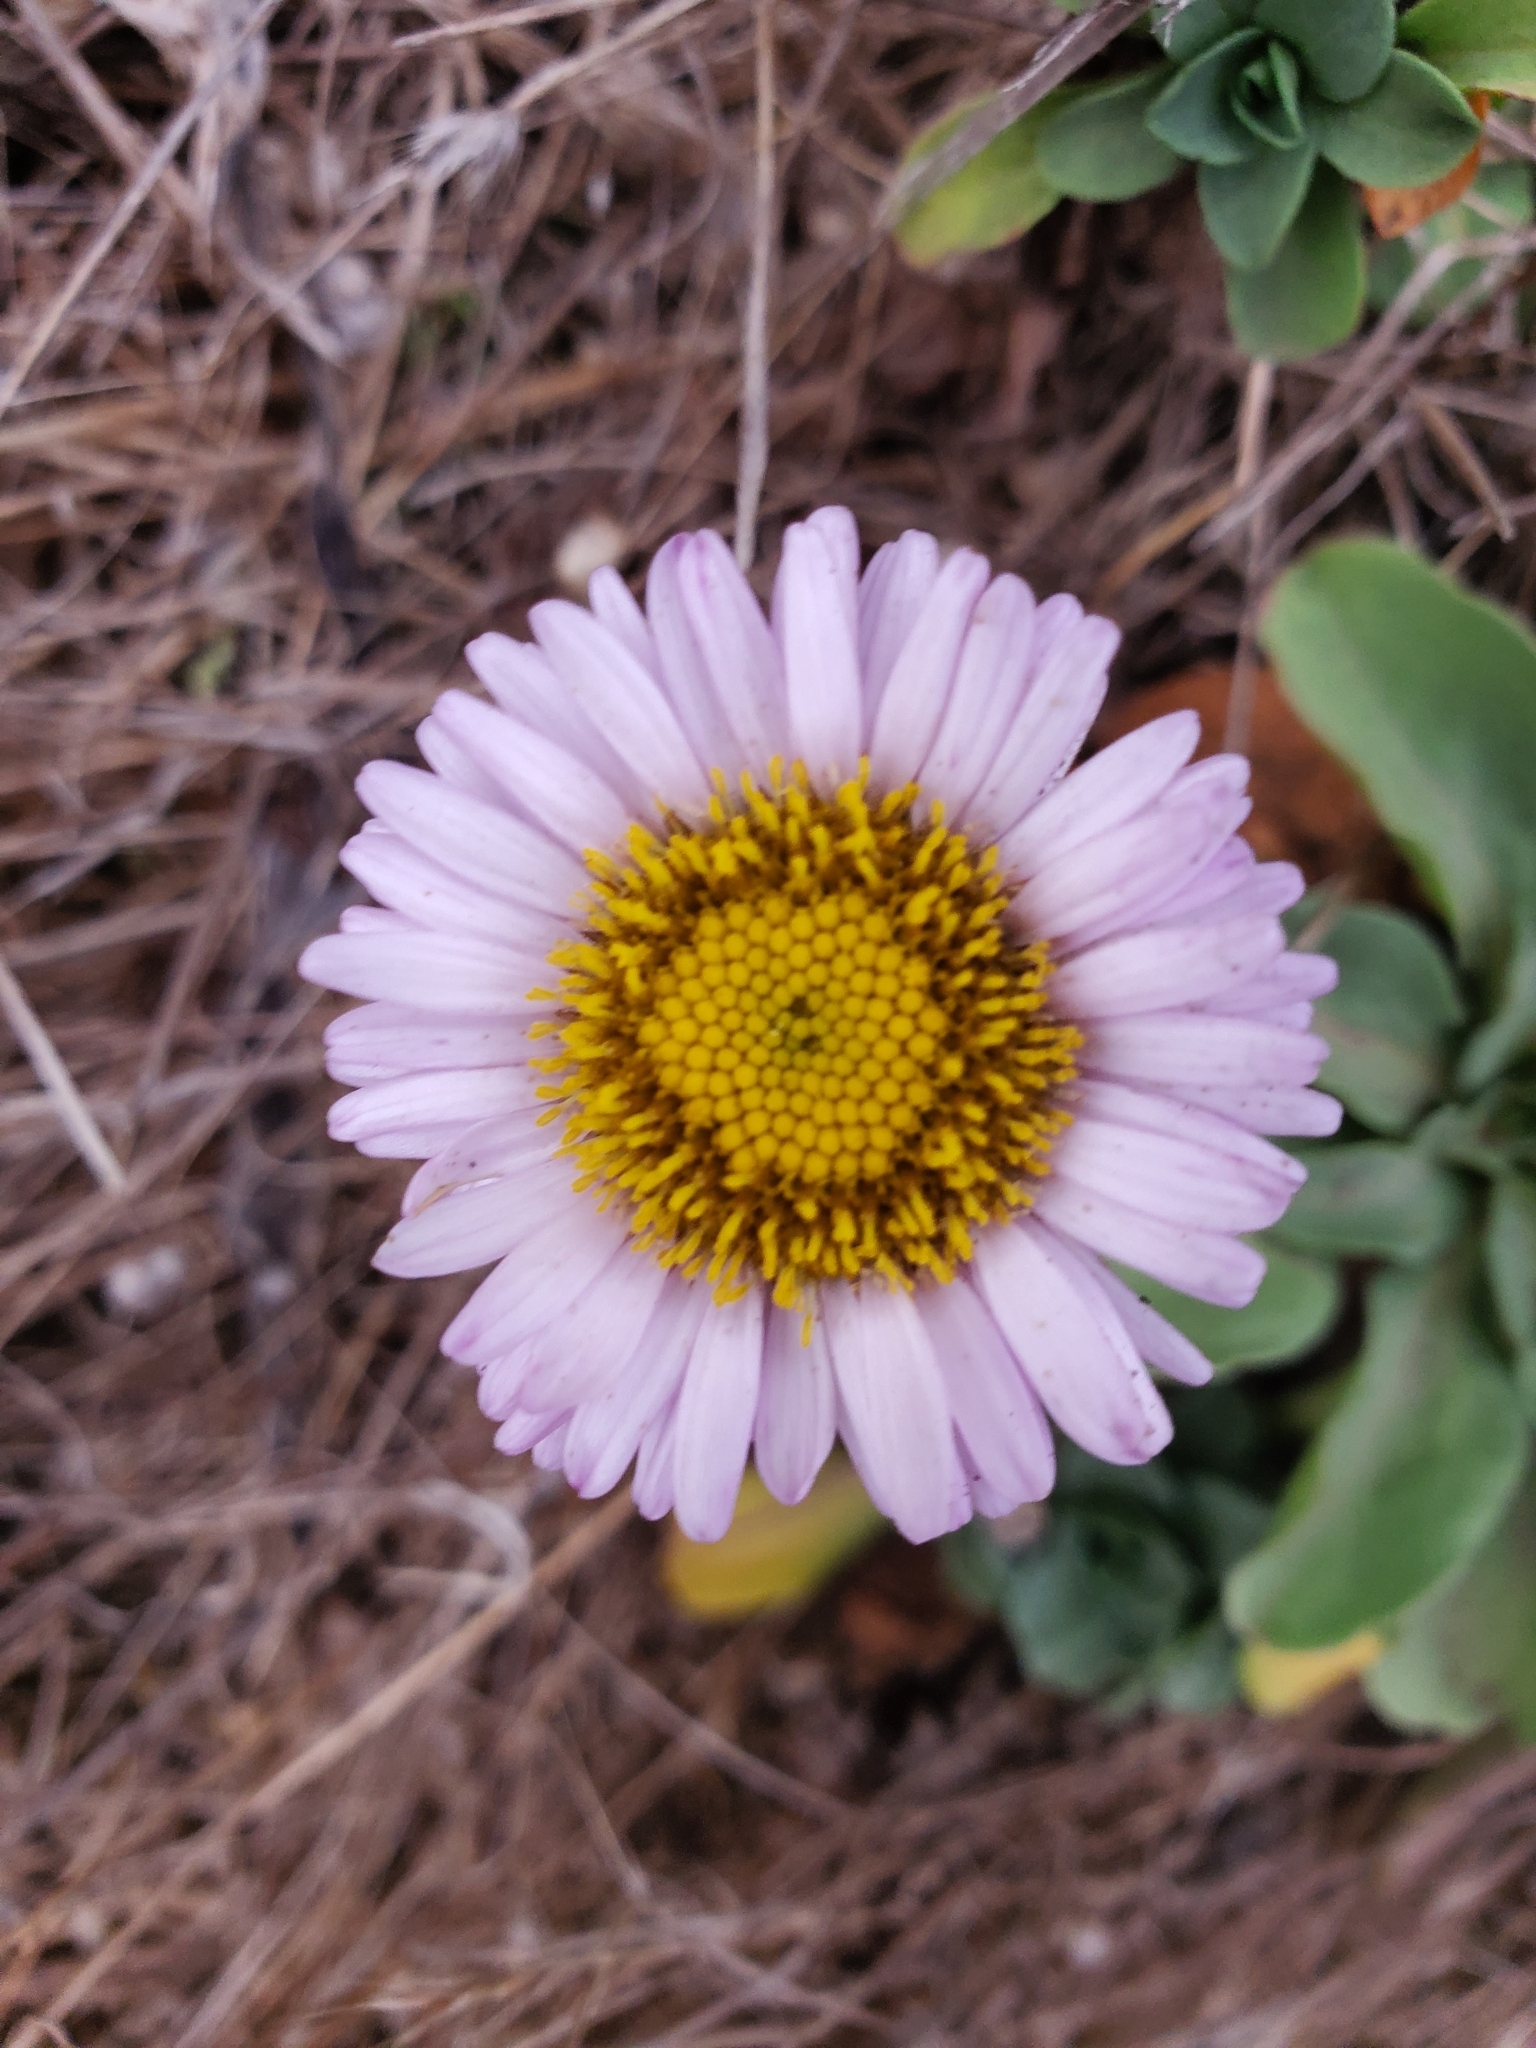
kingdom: Plantae
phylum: Tracheophyta
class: Magnoliopsida
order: Asterales
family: Asteraceae
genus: Erigeron
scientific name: Erigeron glaucus
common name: Seaside daisy
